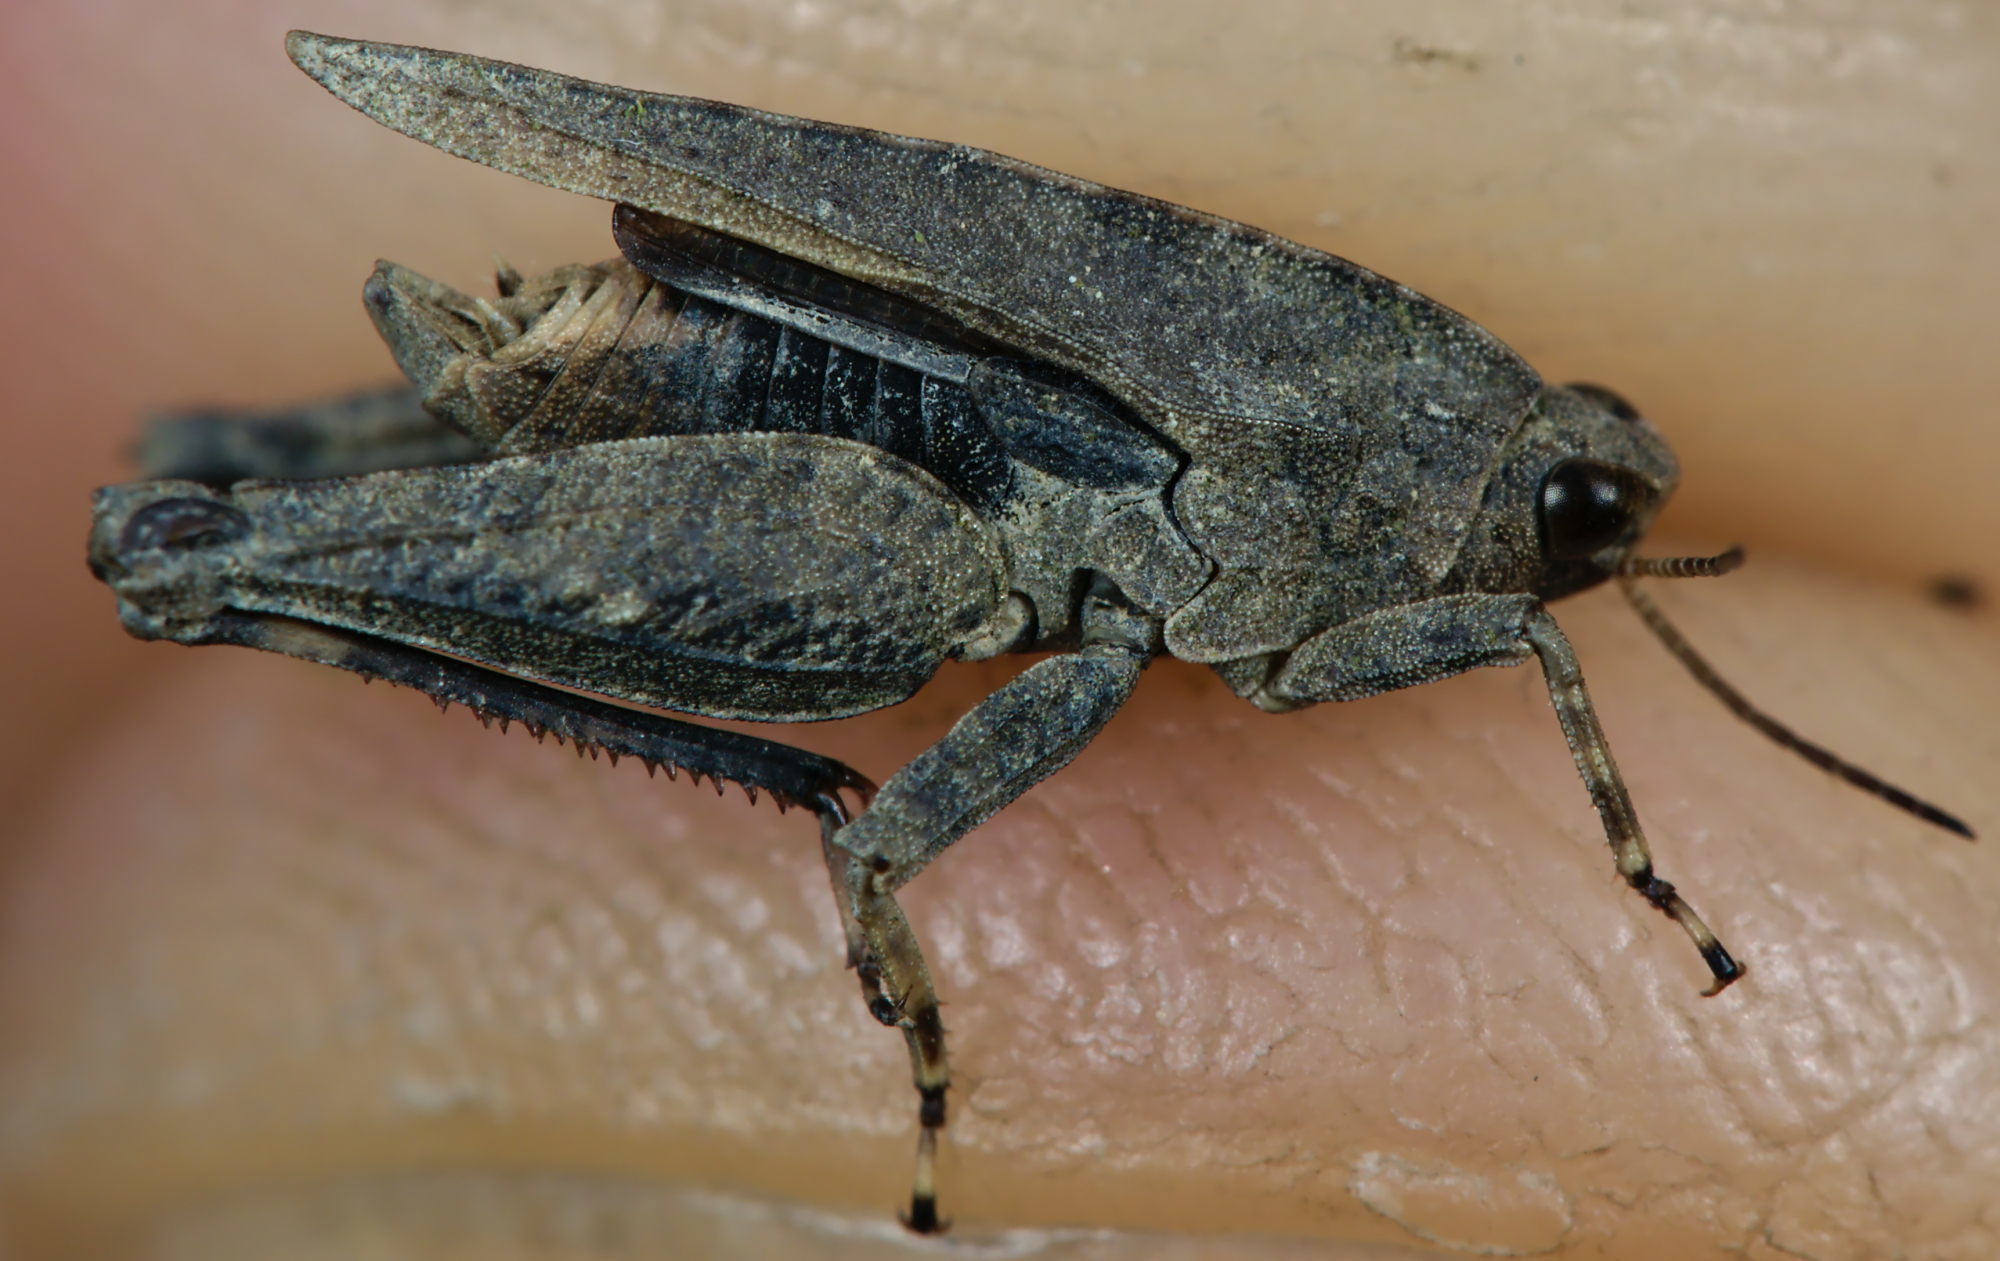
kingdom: Animalia
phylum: Arthropoda
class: Insecta
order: Orthoptera
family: Tetrigidae
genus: Tetrix
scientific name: Tetrix undulata
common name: Common groundhopper
